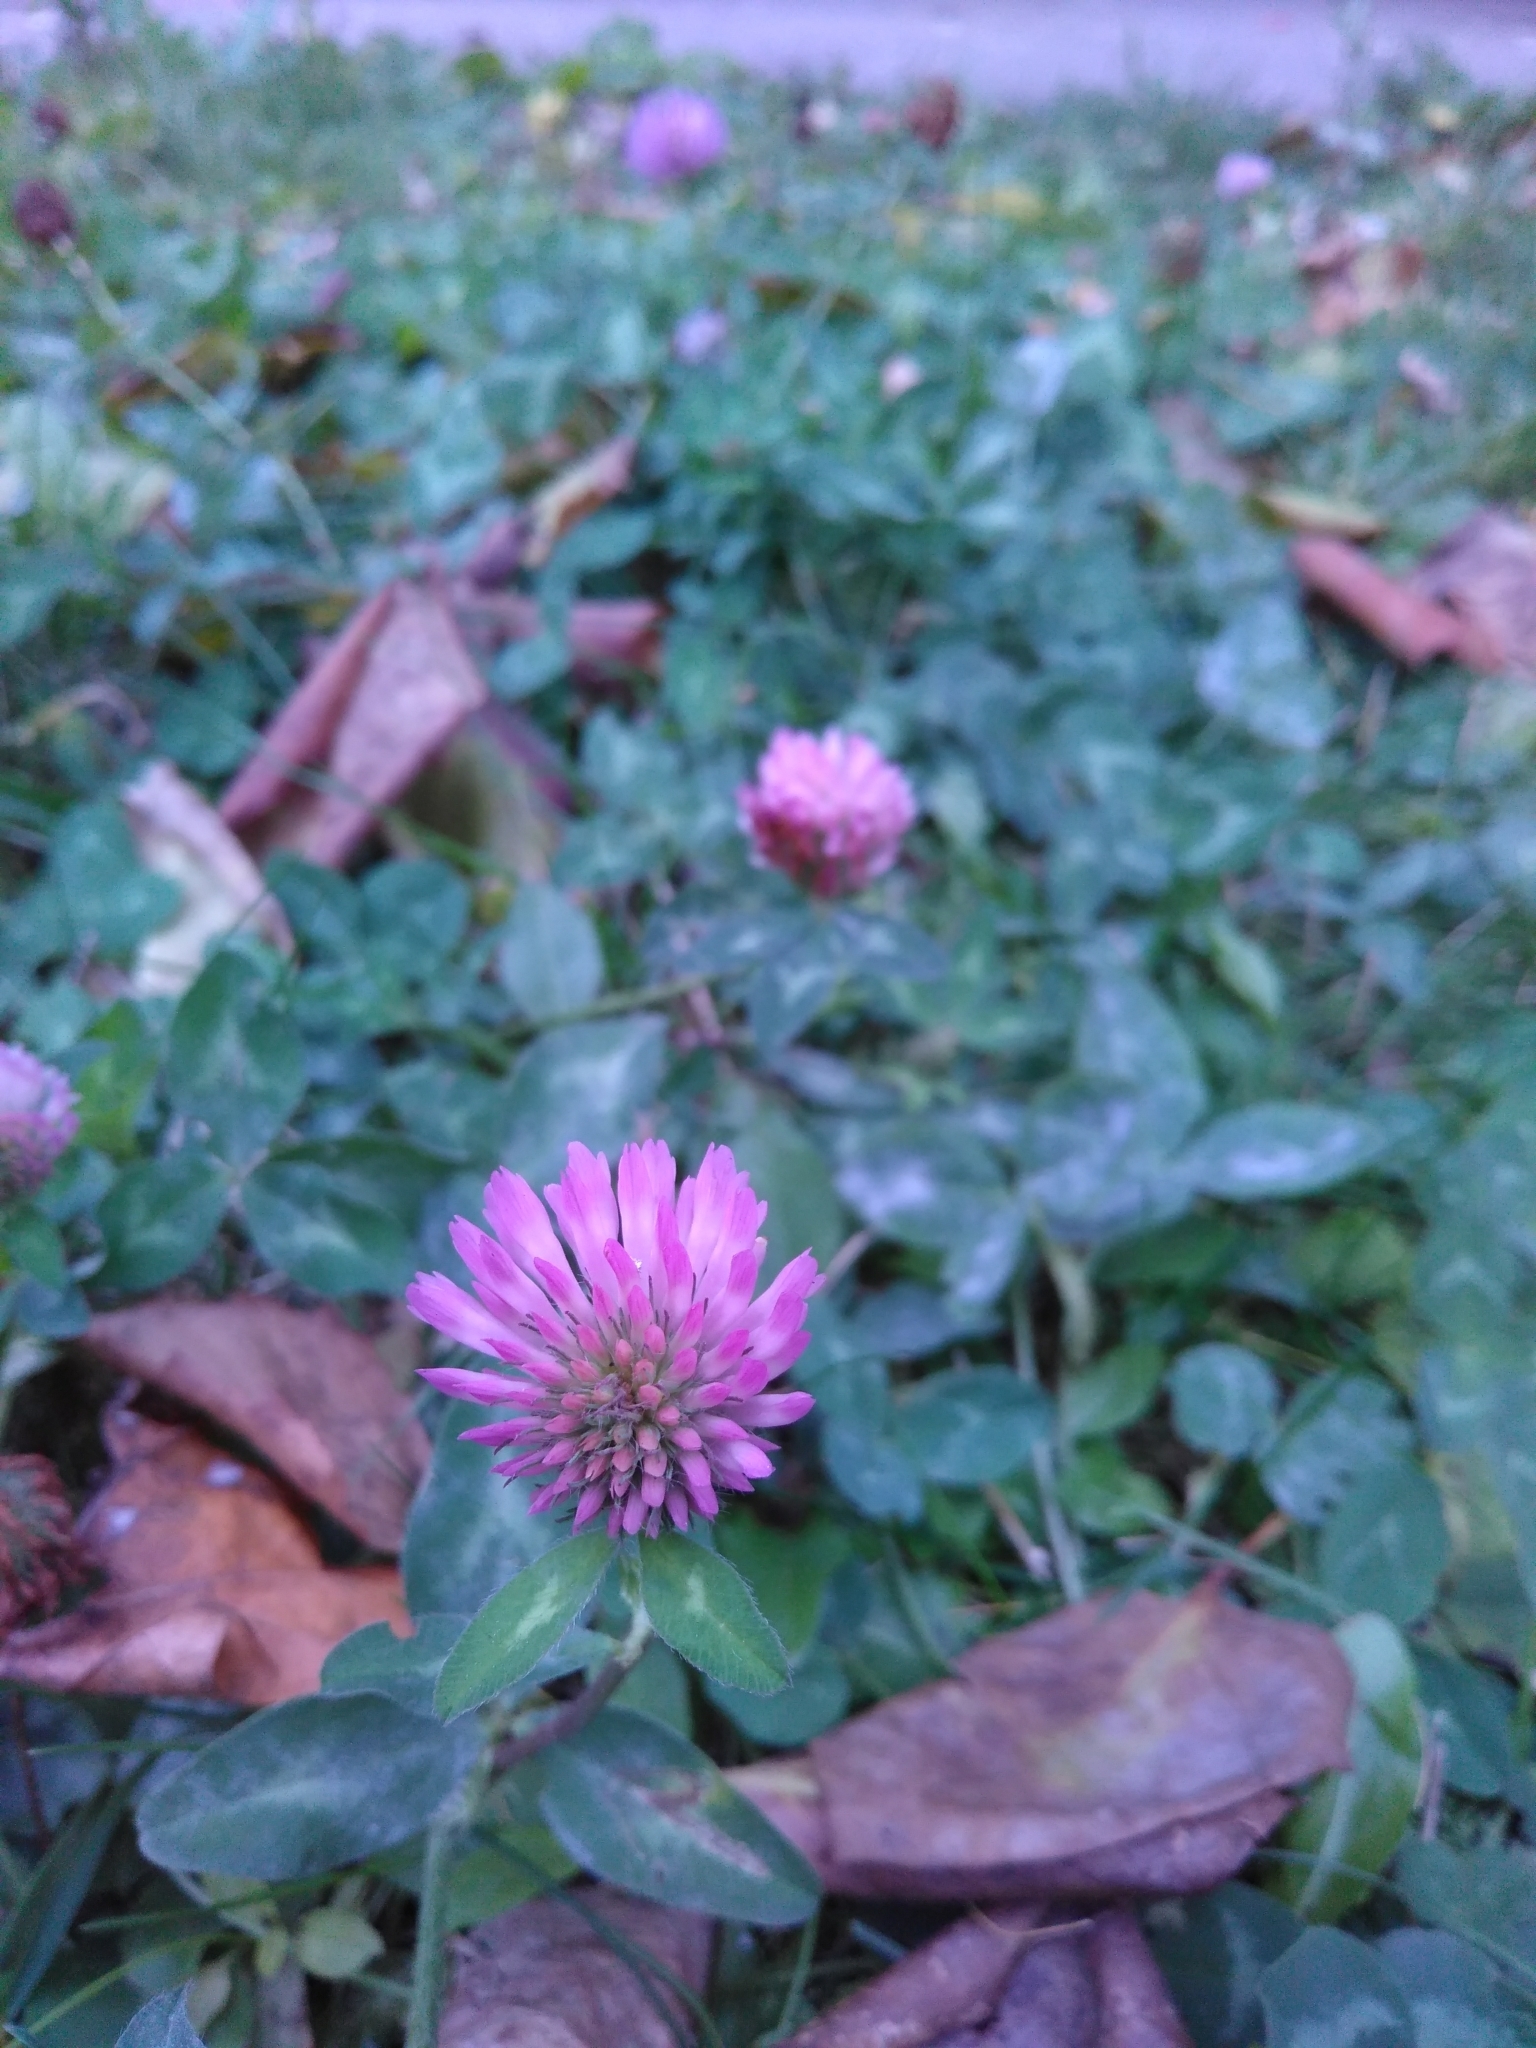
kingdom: Plantae
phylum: Tracheophyta
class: Magnoliopsida
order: Fabales
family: Fabaceae
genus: Trifolium
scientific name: Trifolium pratense
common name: Red clover
